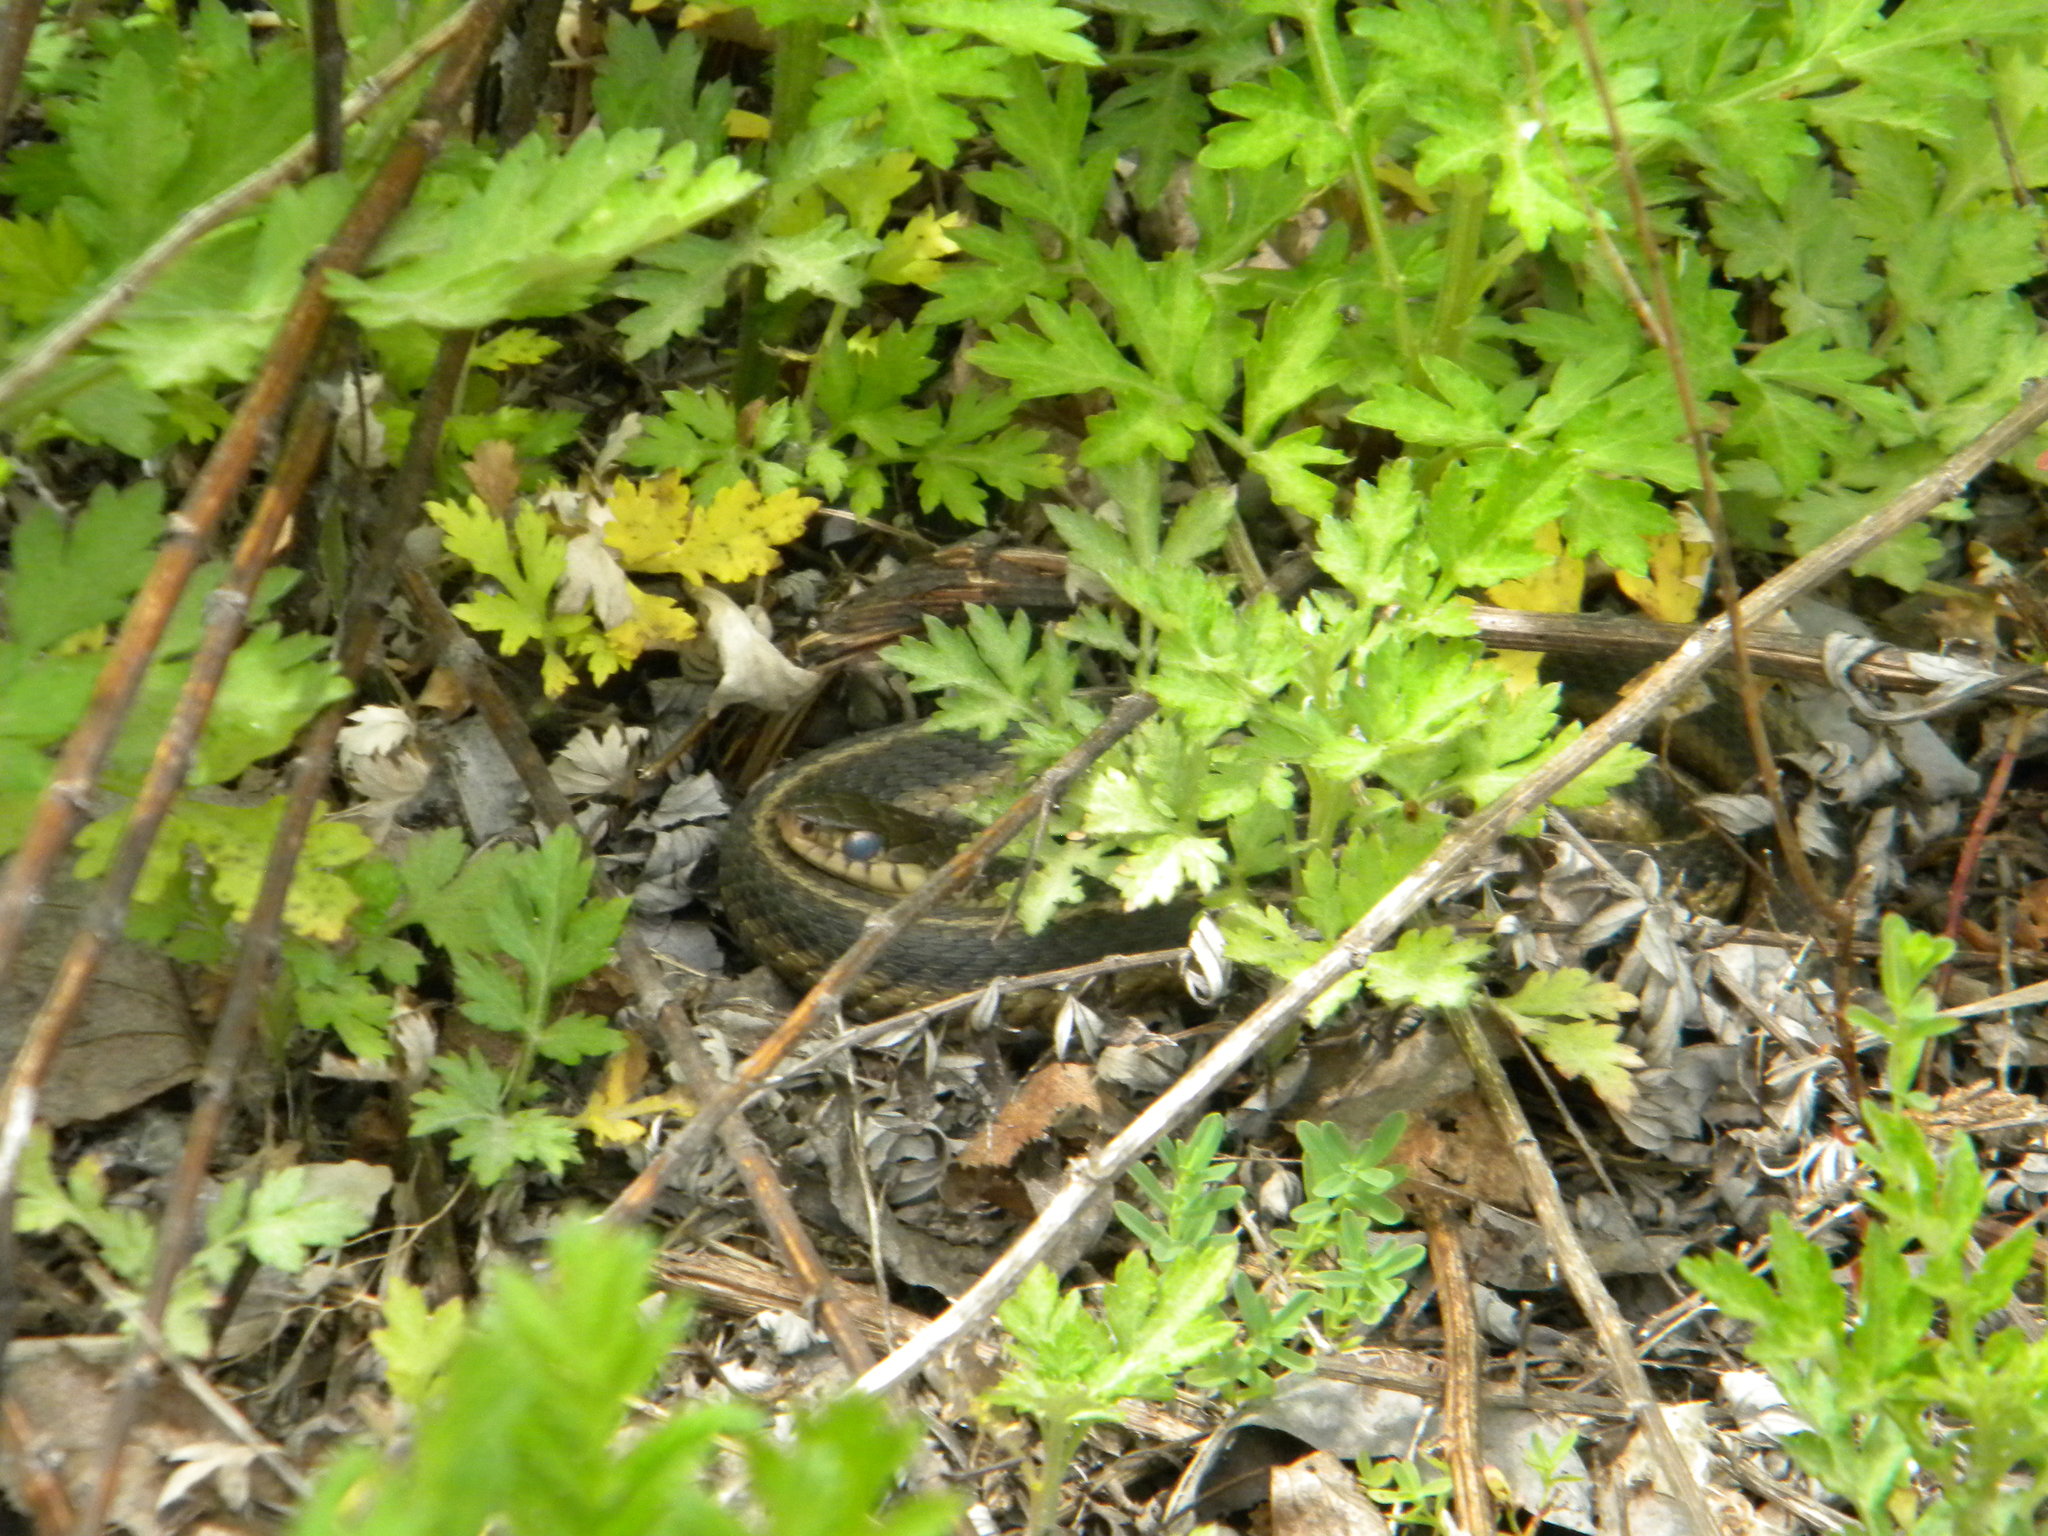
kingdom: Animalia
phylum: Chordata
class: Squamata
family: Colubridae
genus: Thamnophis
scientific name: Thamnophis sirtalis
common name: Common garter snake
